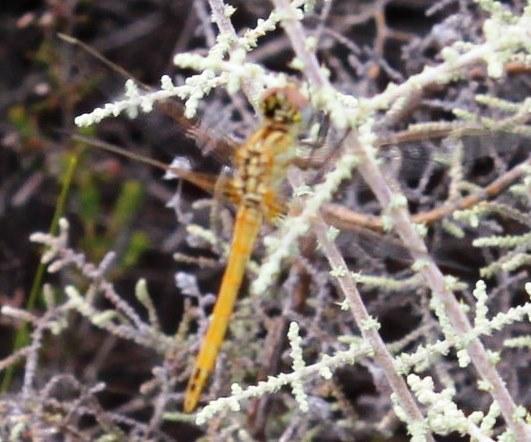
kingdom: Animalia
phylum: Arthropoda
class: Insecta
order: Odonata
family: Libellulidae
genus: Sympetrum
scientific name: Sympetrum fonscolombii
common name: Red-veined darter
